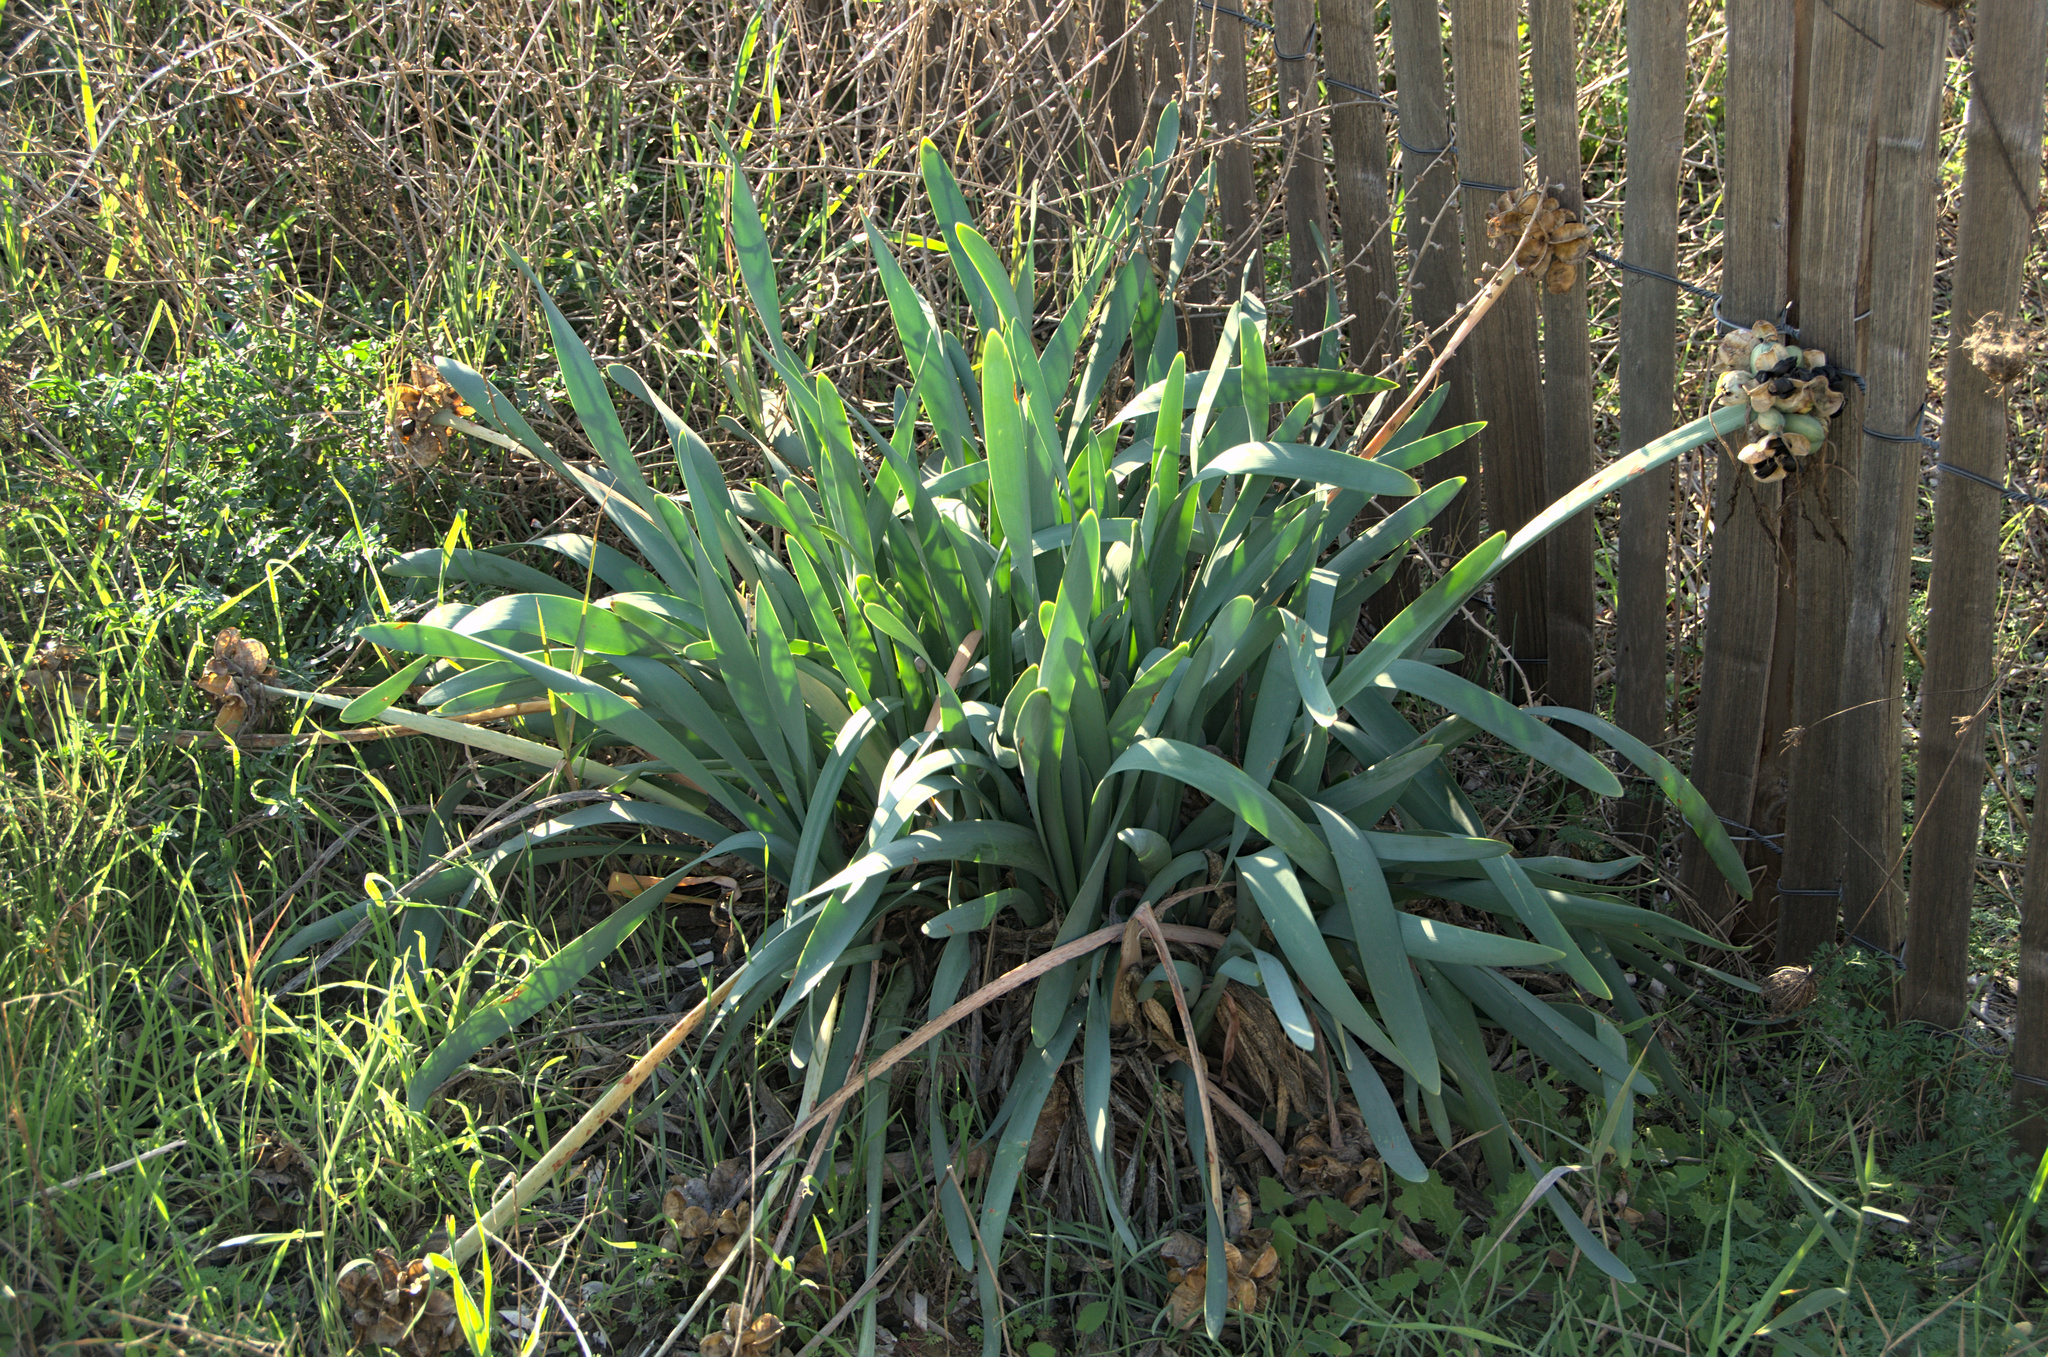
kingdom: Plantae
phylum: Tracheophyta
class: Liliopsida
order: Asparagales
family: Amaryllidaceae
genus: Pancratium
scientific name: Pancratium maritimum
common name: Sea-daffodil
